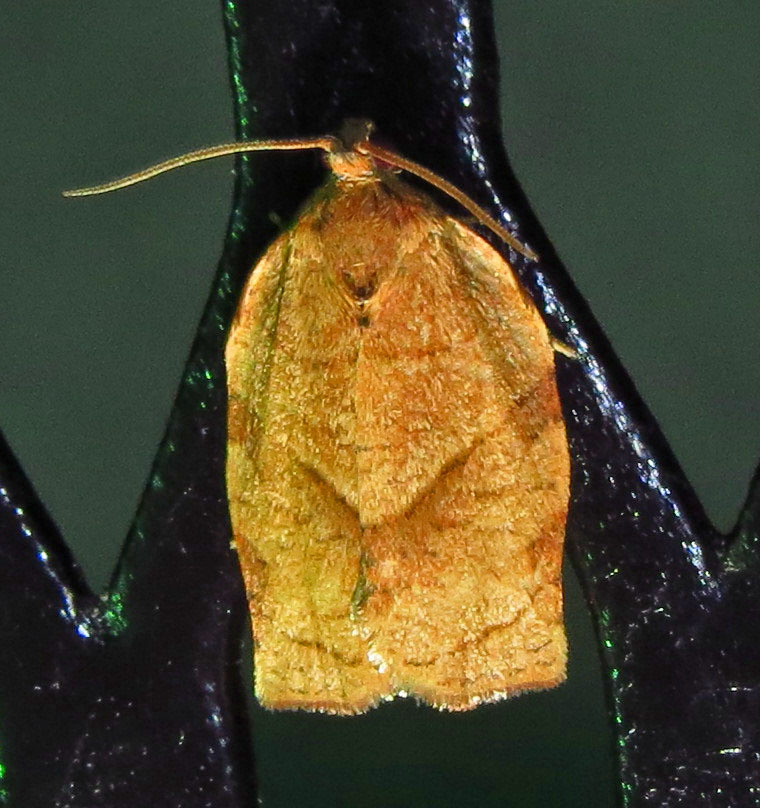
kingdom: Animalia
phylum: Arthropoda
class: Insecta
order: Lepidoptera
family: Tortricidae
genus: Choristoneura
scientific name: Choristoneura rosaceana
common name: Oblique-banded leafroller moth
